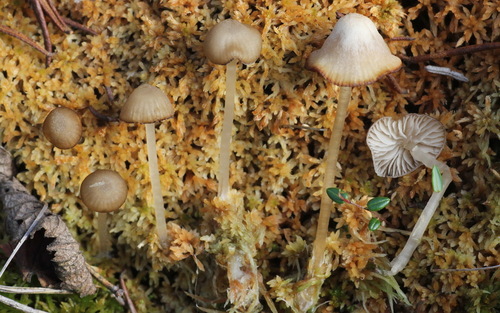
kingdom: Fungi
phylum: Basidiomycota
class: Agaricomycetes
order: Agaricales
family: Lyophyllaceae
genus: Sphagnurus
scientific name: Sphagnurus paluster
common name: Sphagnum greyling
